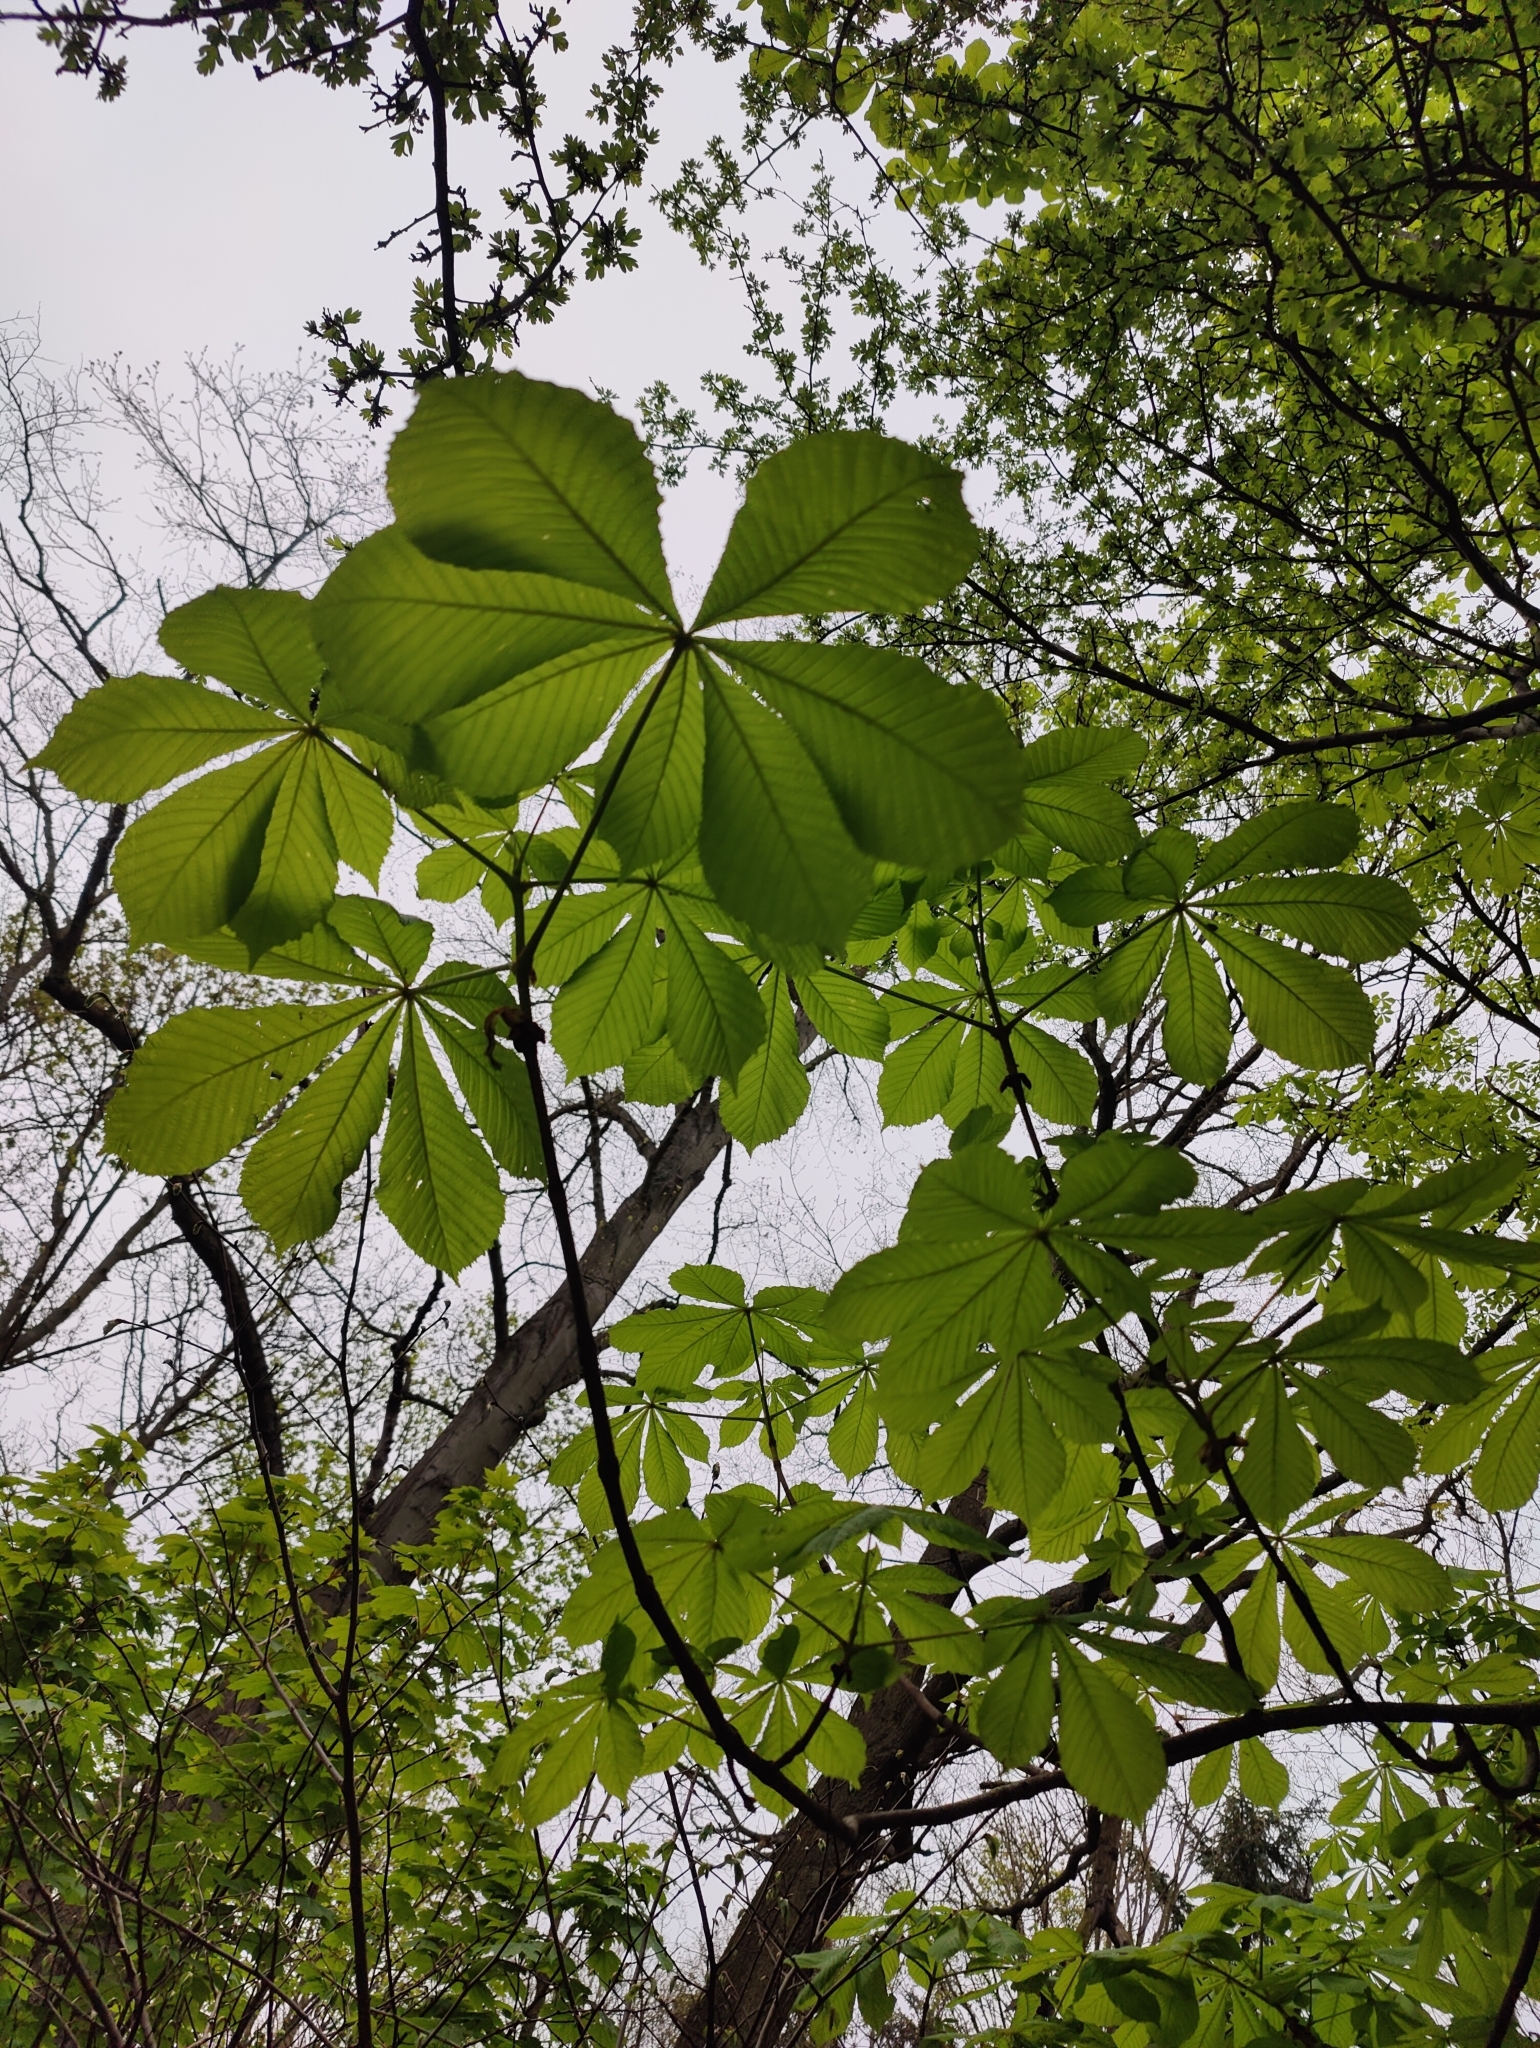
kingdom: Plantae
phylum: Tracheophyta
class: Magnoliopsida
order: Sapindales
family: Sapindaceae
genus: Aesculus
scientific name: Aesculus hippocastanum
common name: Horse-chestnut
